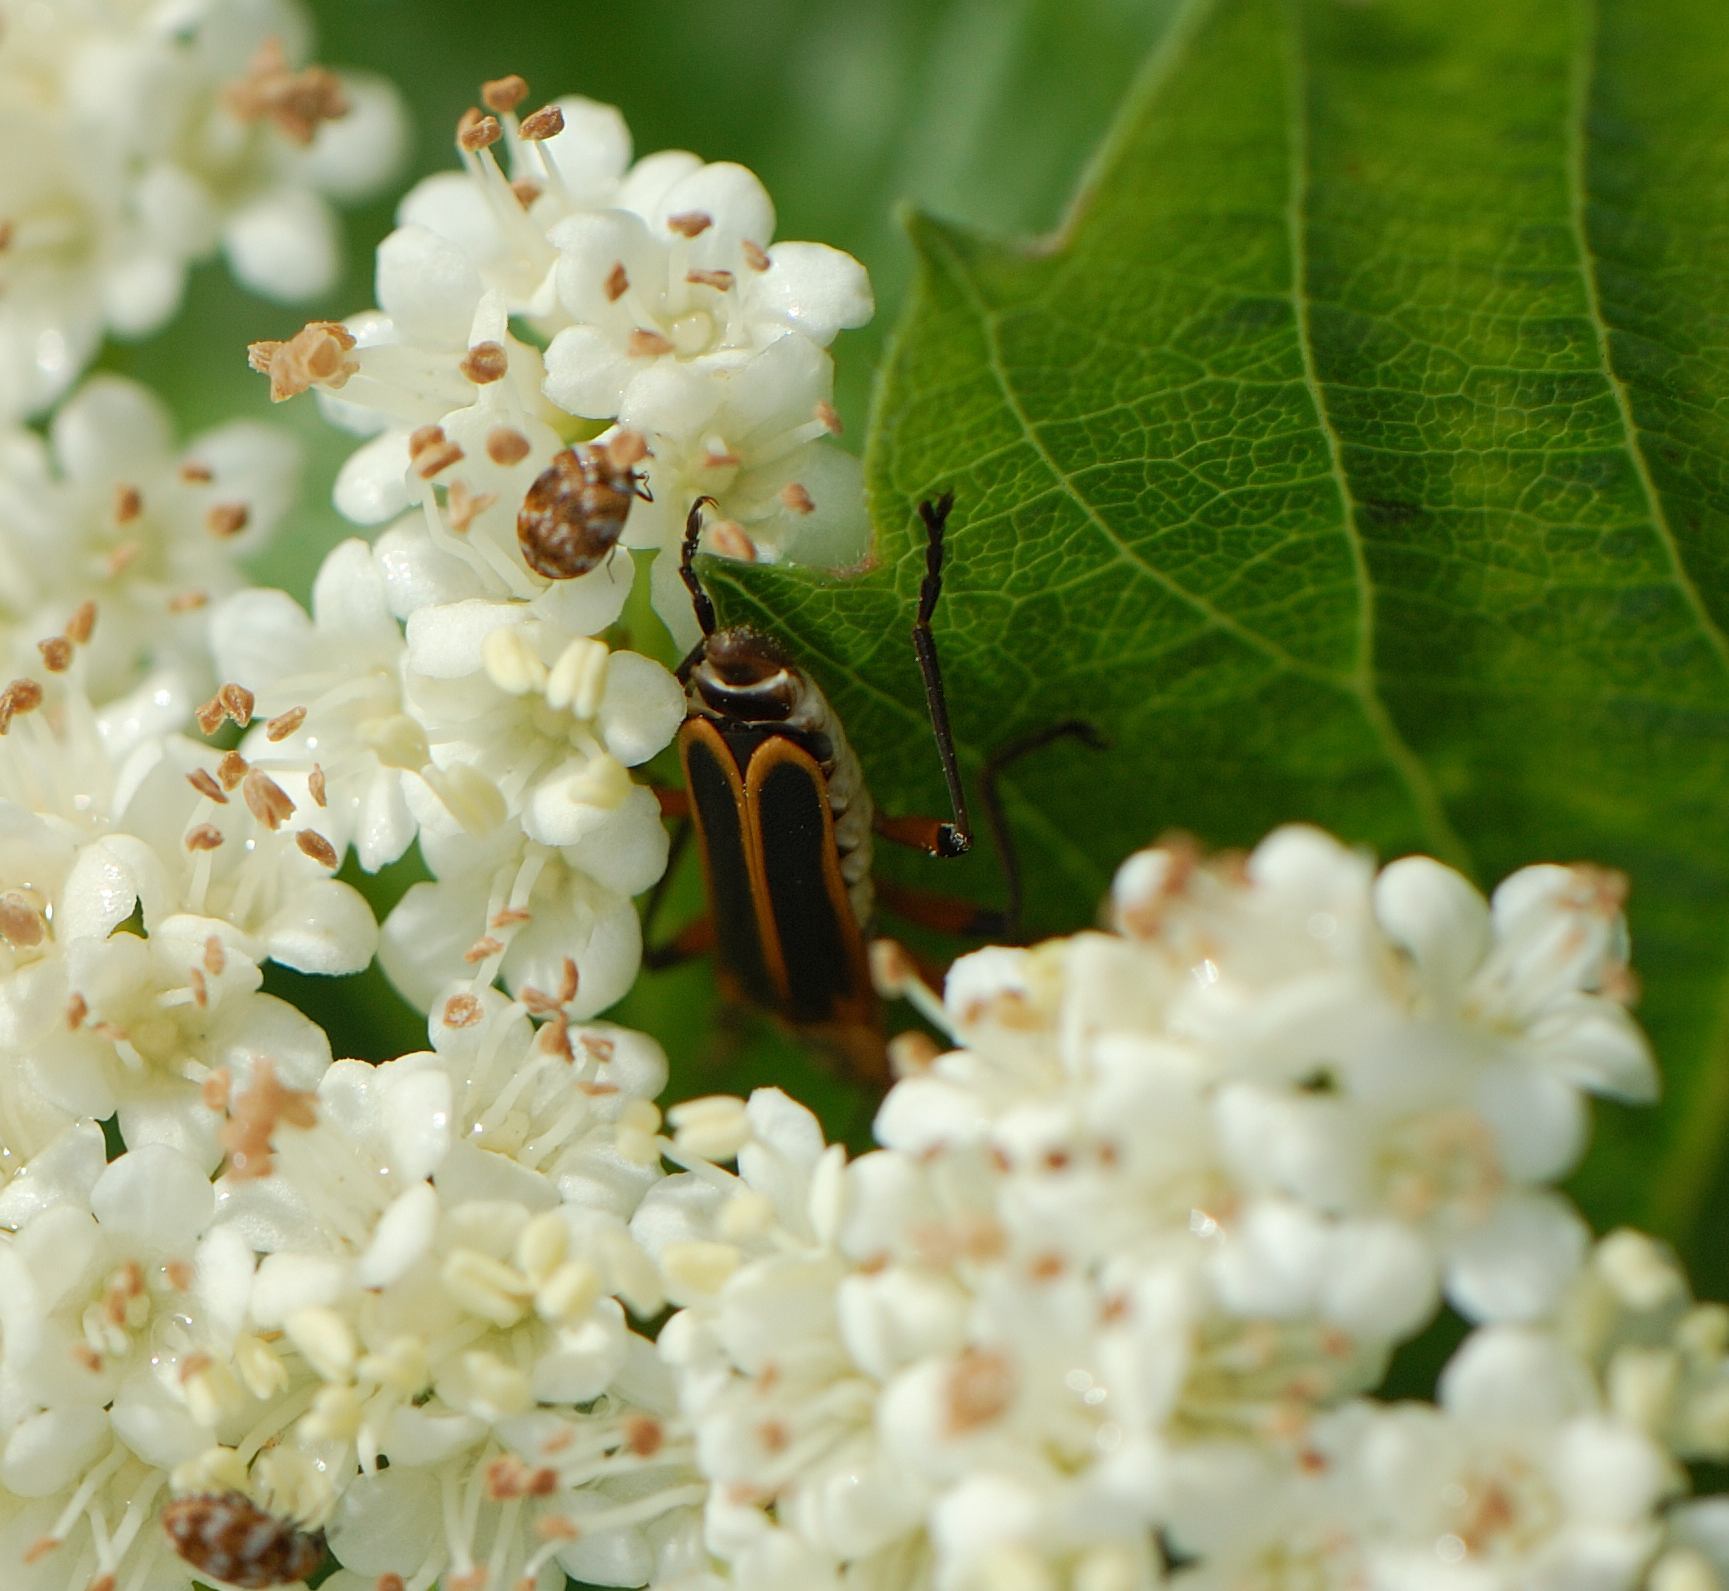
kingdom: Animalia
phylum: Arthropoda
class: Insecta
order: Coleoptera
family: Cantharidae
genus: Chauliognathus
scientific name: Chauliognathus marginatus
